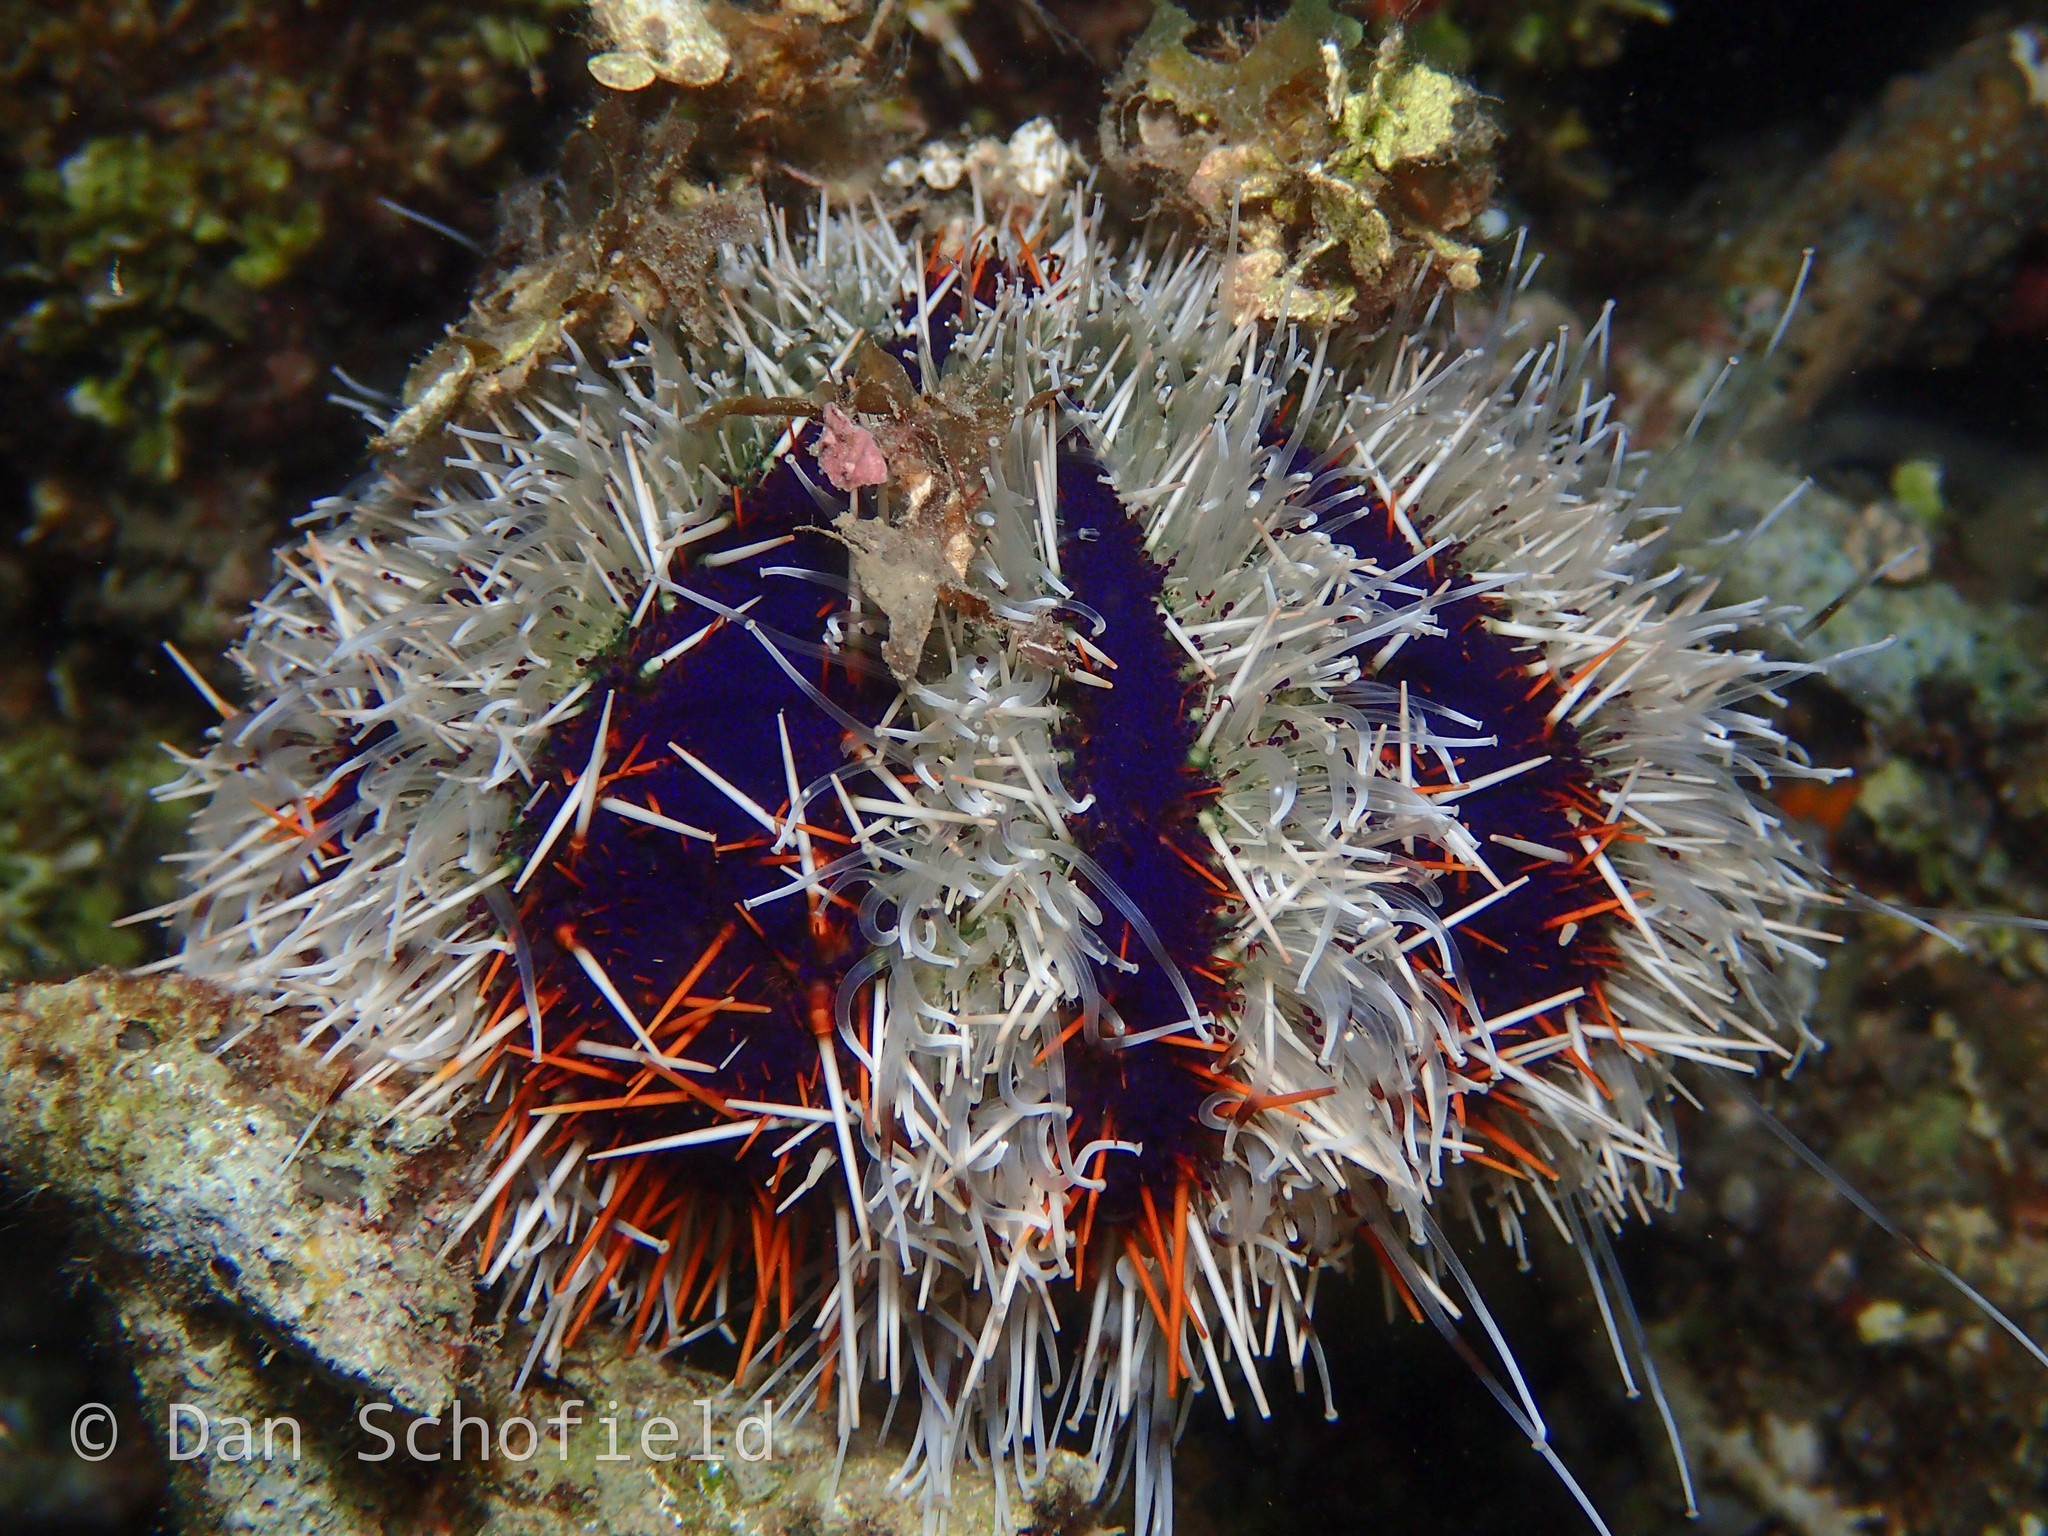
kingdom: Animalia
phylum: Echinodermata
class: Echinoidea
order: Camarodonta
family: Toxopneustidae
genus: Tripneustes
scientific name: Tripneustes gratilla
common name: Bischofsmützenseeigel
